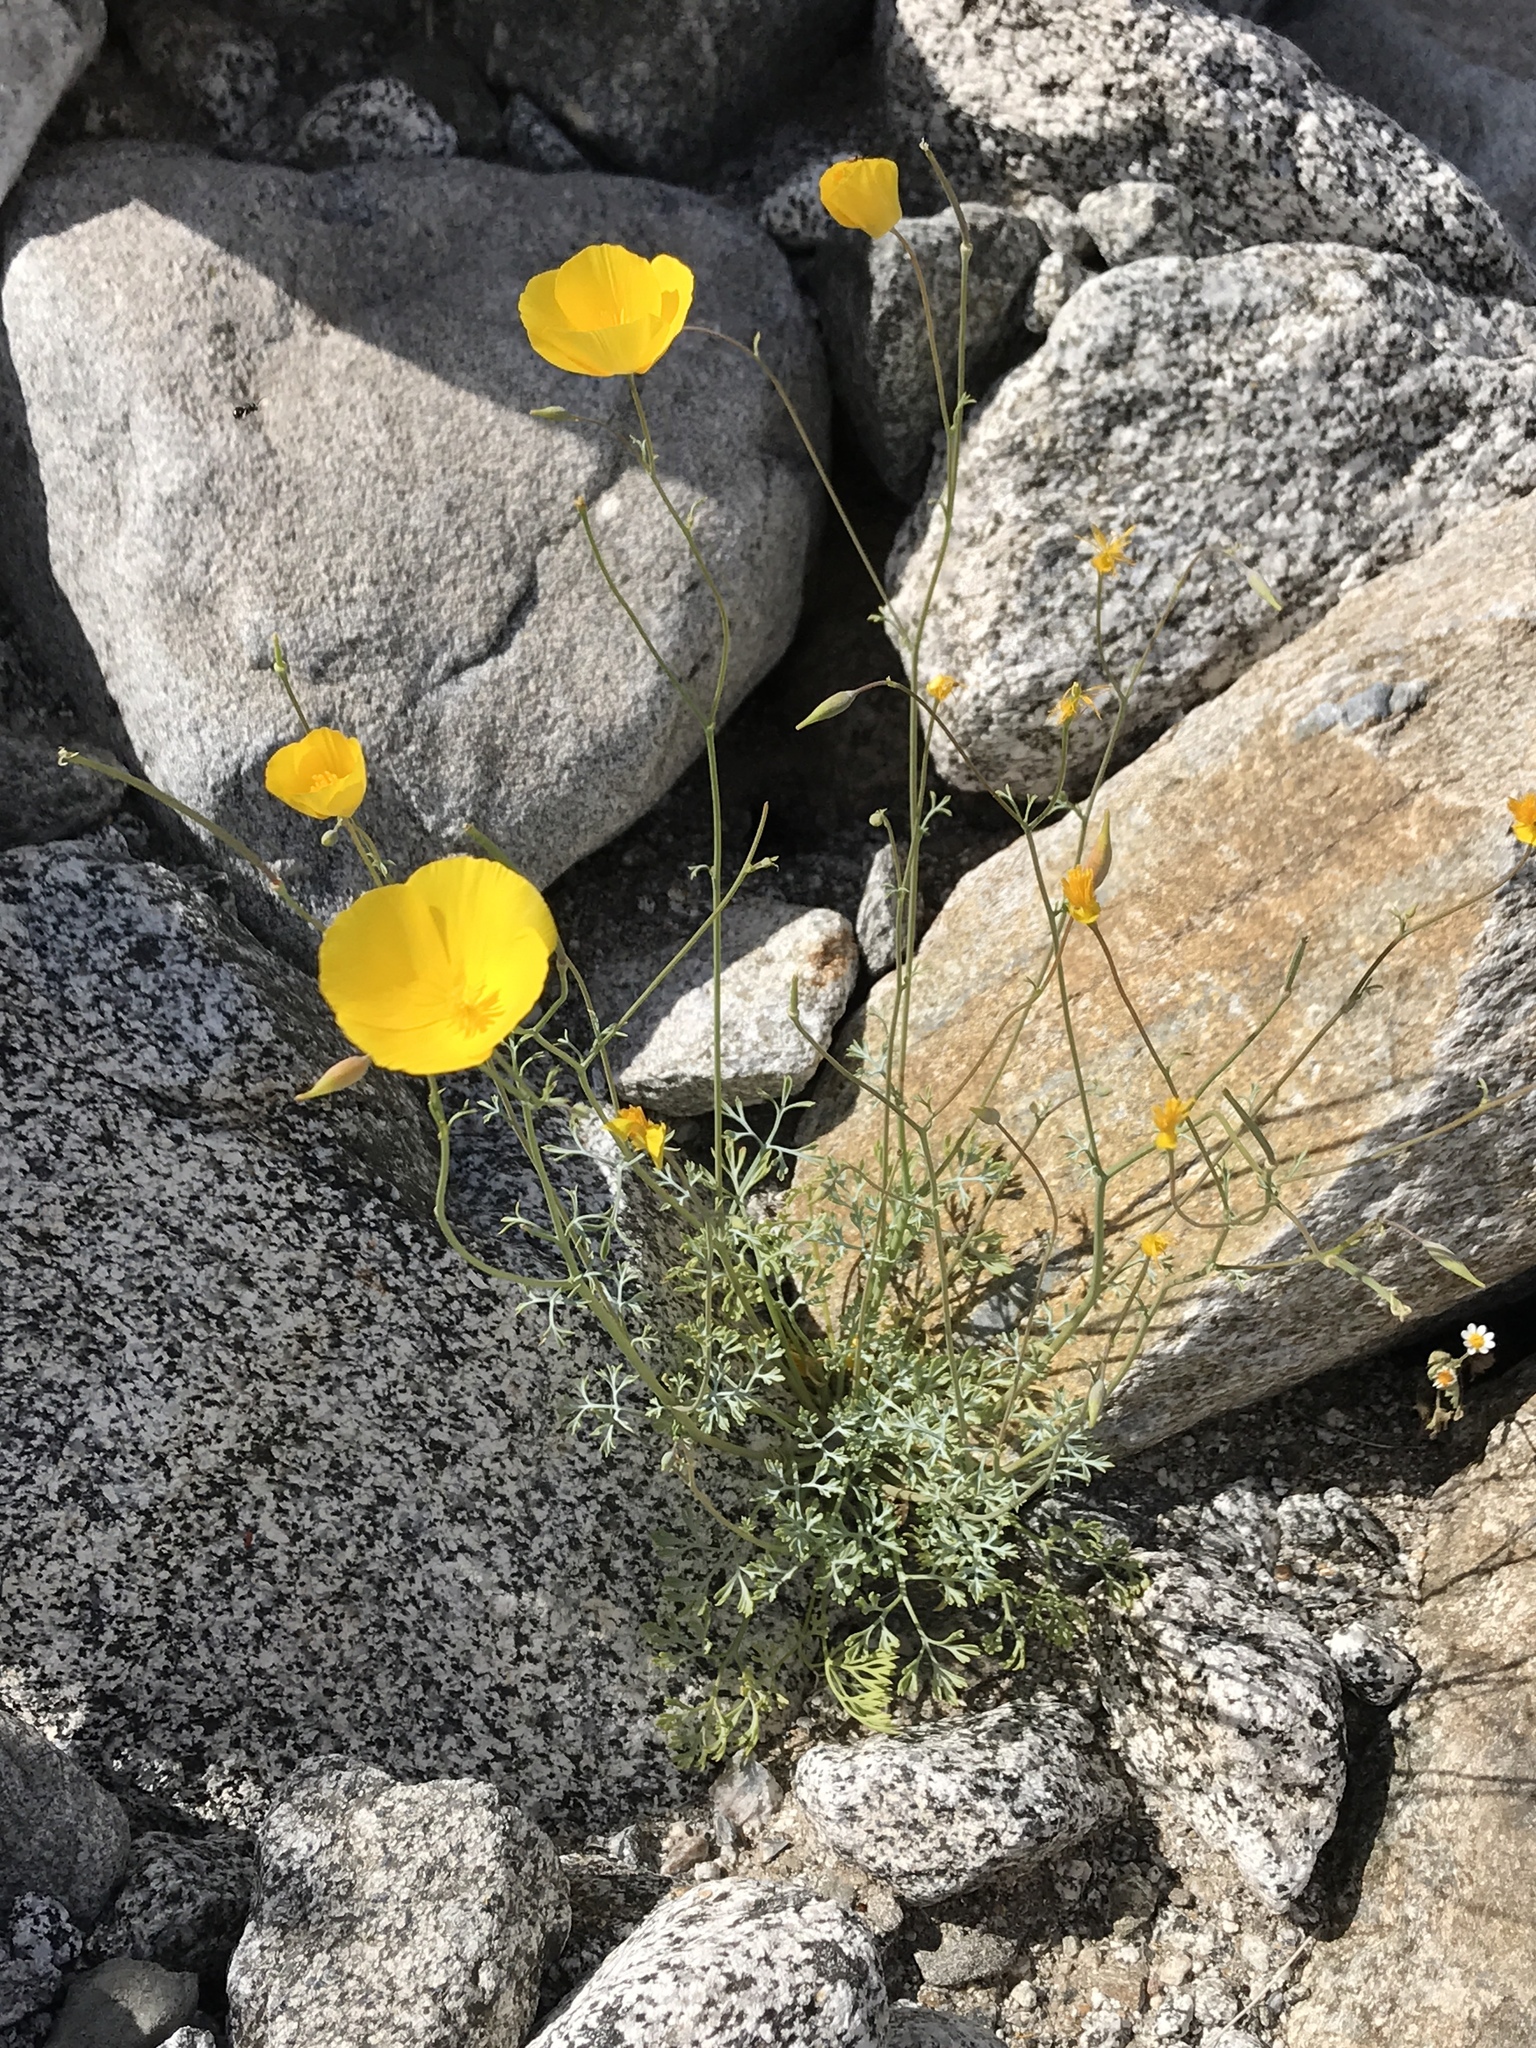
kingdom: Plantae
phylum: Tracheophyta
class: Magnoliopsida
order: Ranunculales
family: Papaveraceae
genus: Eschscholzia
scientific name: Eschscholzia parishii
